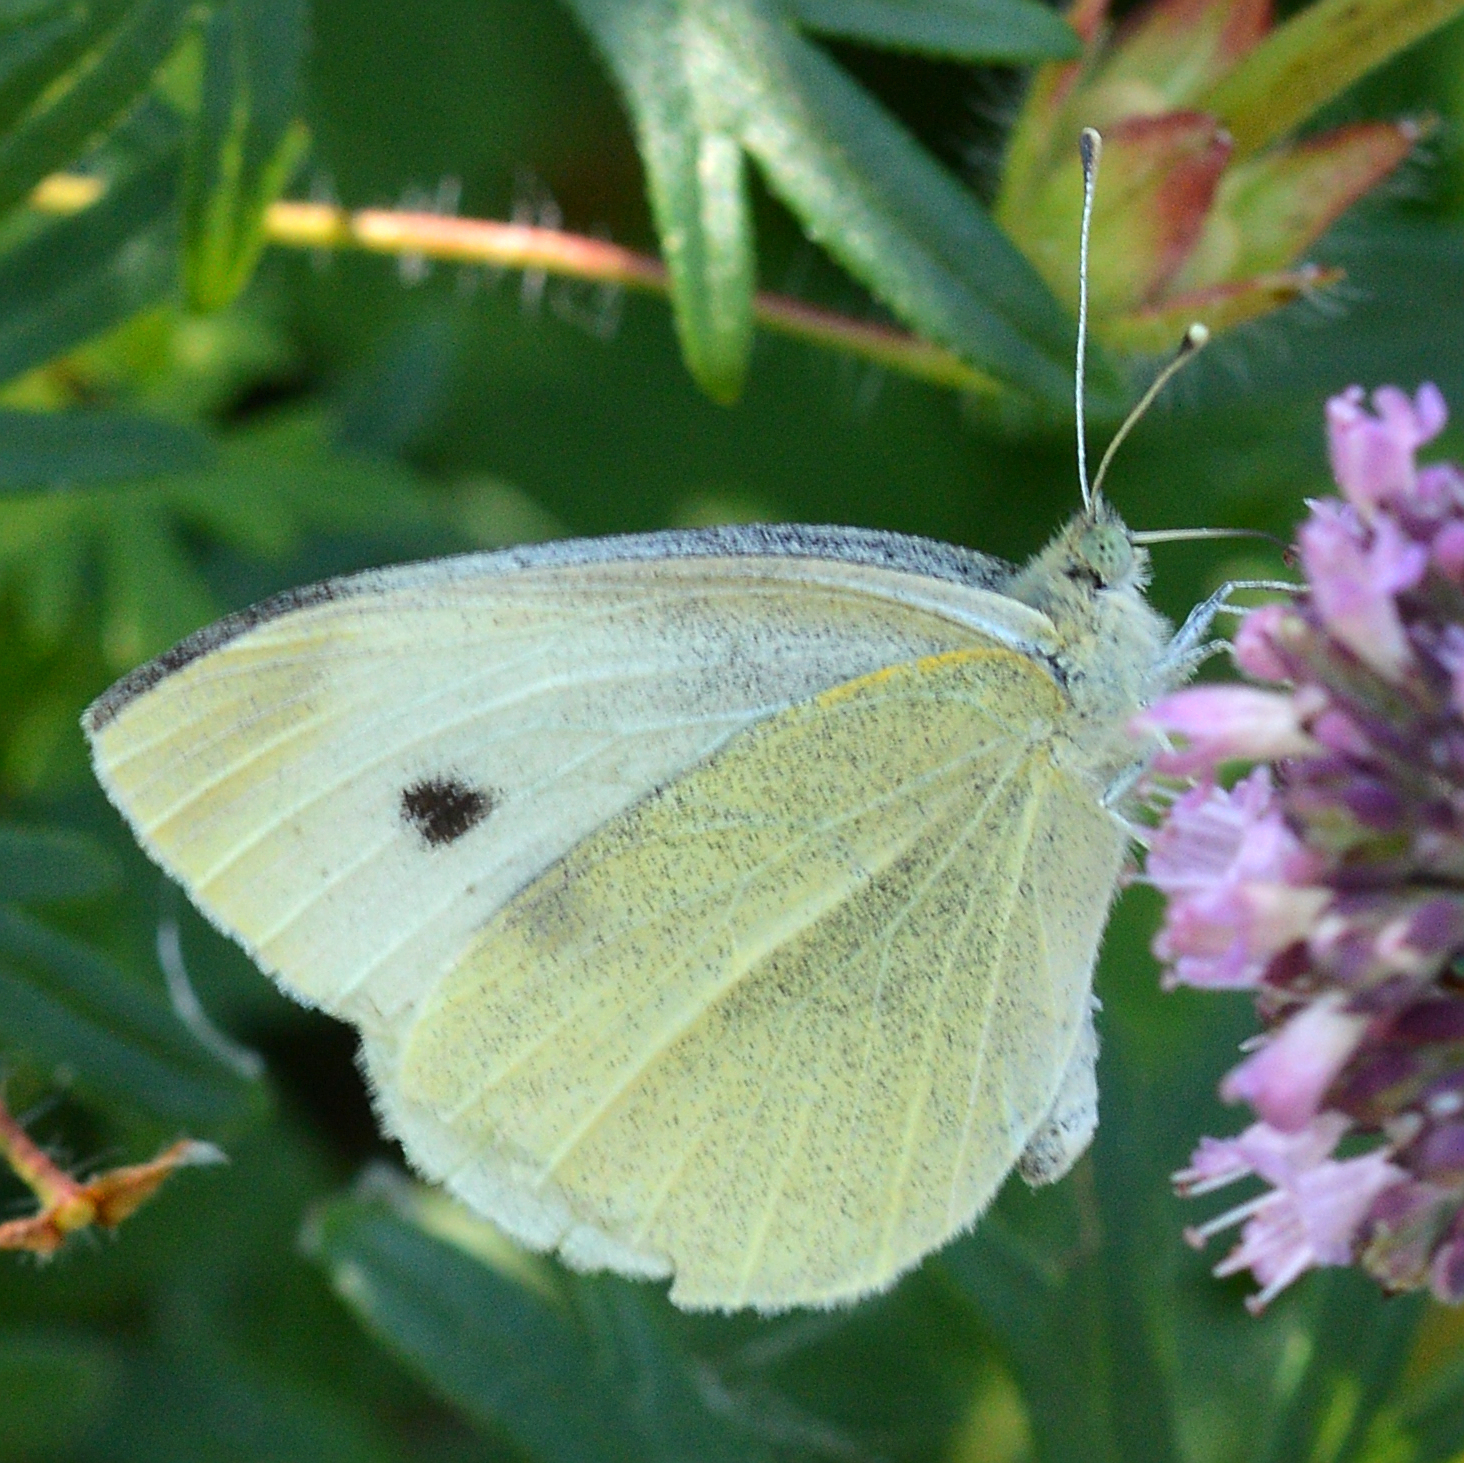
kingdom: Animalia
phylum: Arthropoda
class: Insecta
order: Lepidoptera
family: Pieridae
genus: Pieris
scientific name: Pieris rapae
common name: Small white
